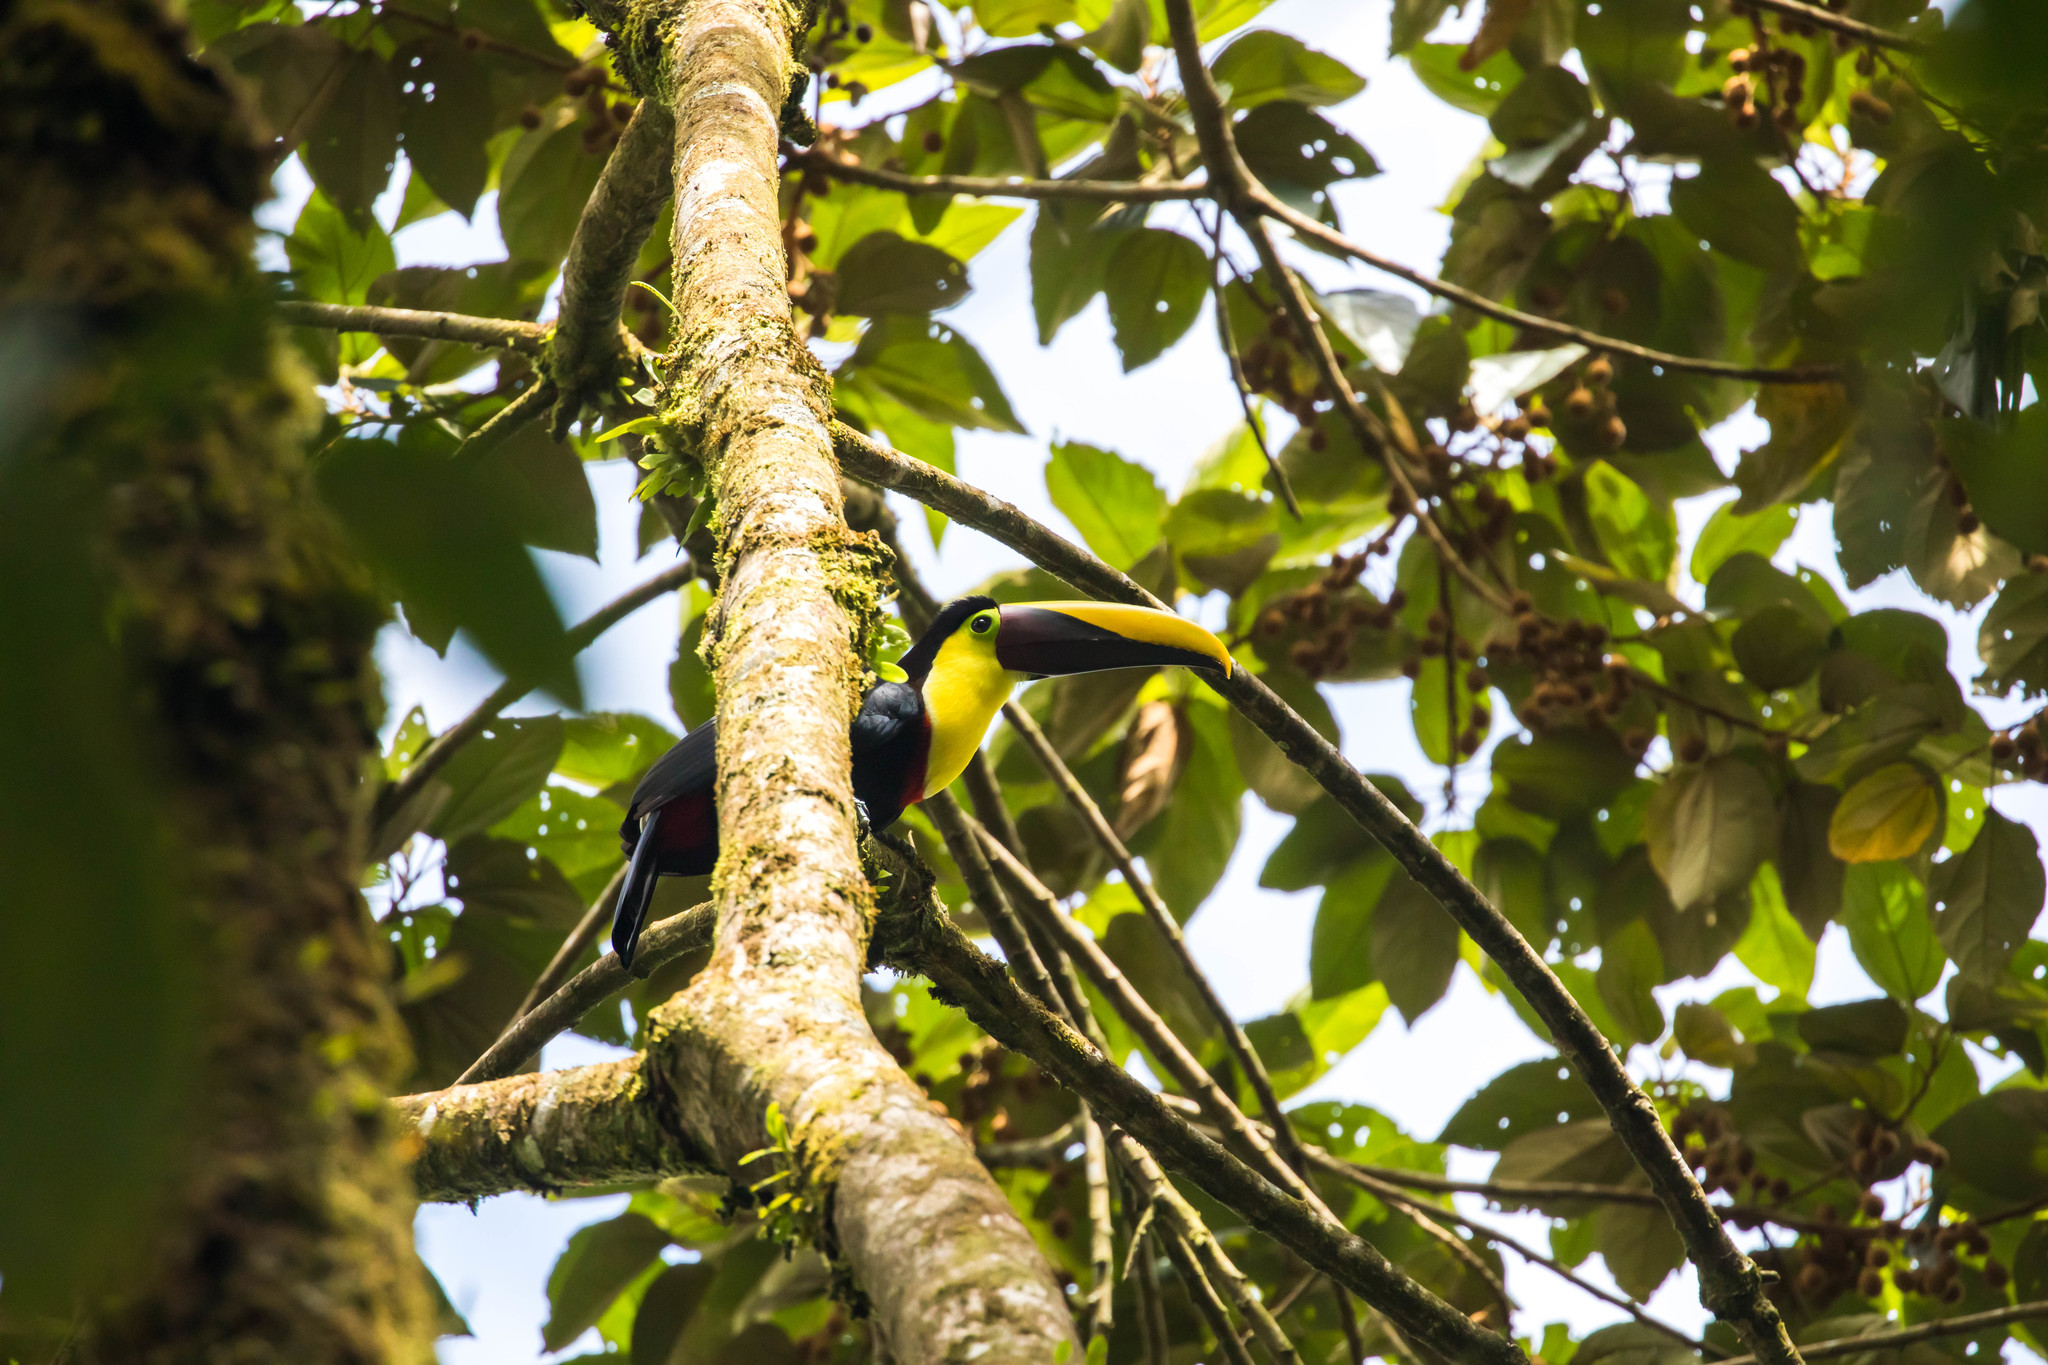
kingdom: Animalia
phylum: Chordata
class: Aves
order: Piciformes
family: Ramphastidae
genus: Ramphastos
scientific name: Ramphastos ambiguus
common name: Yellow-throated toucan
